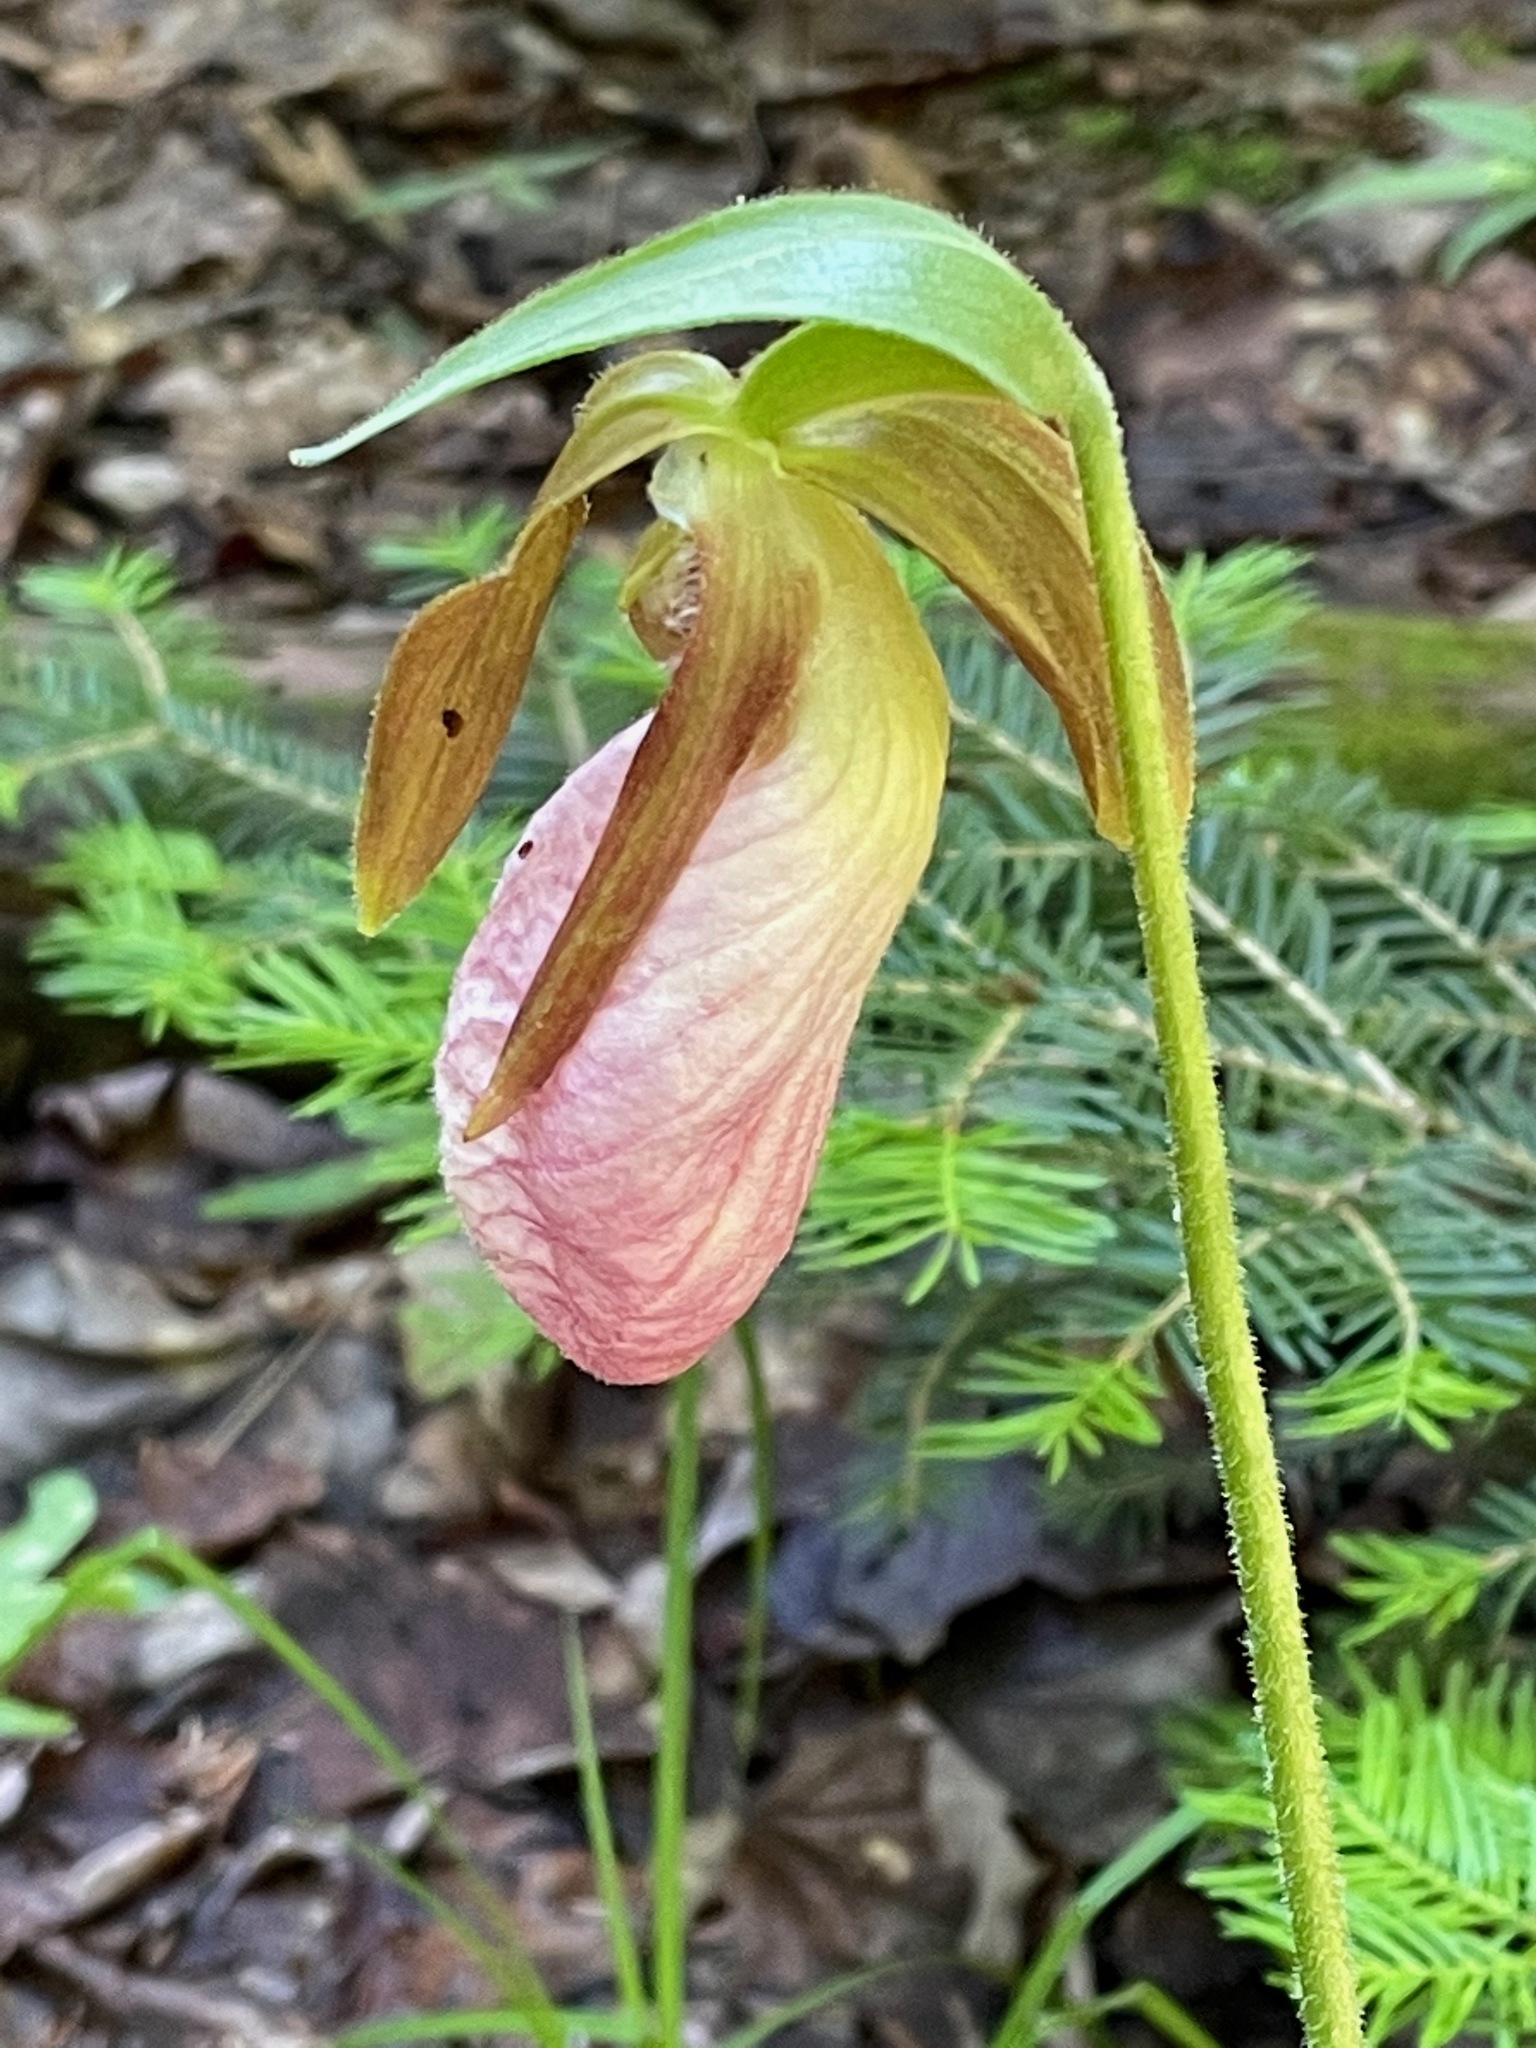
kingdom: Plantae
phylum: Tracheophyta
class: Liliopsida
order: Asparagales
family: Orchidaceae
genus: Cypripedium
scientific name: Cypripedium acaule
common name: Pink lady's-slipper
